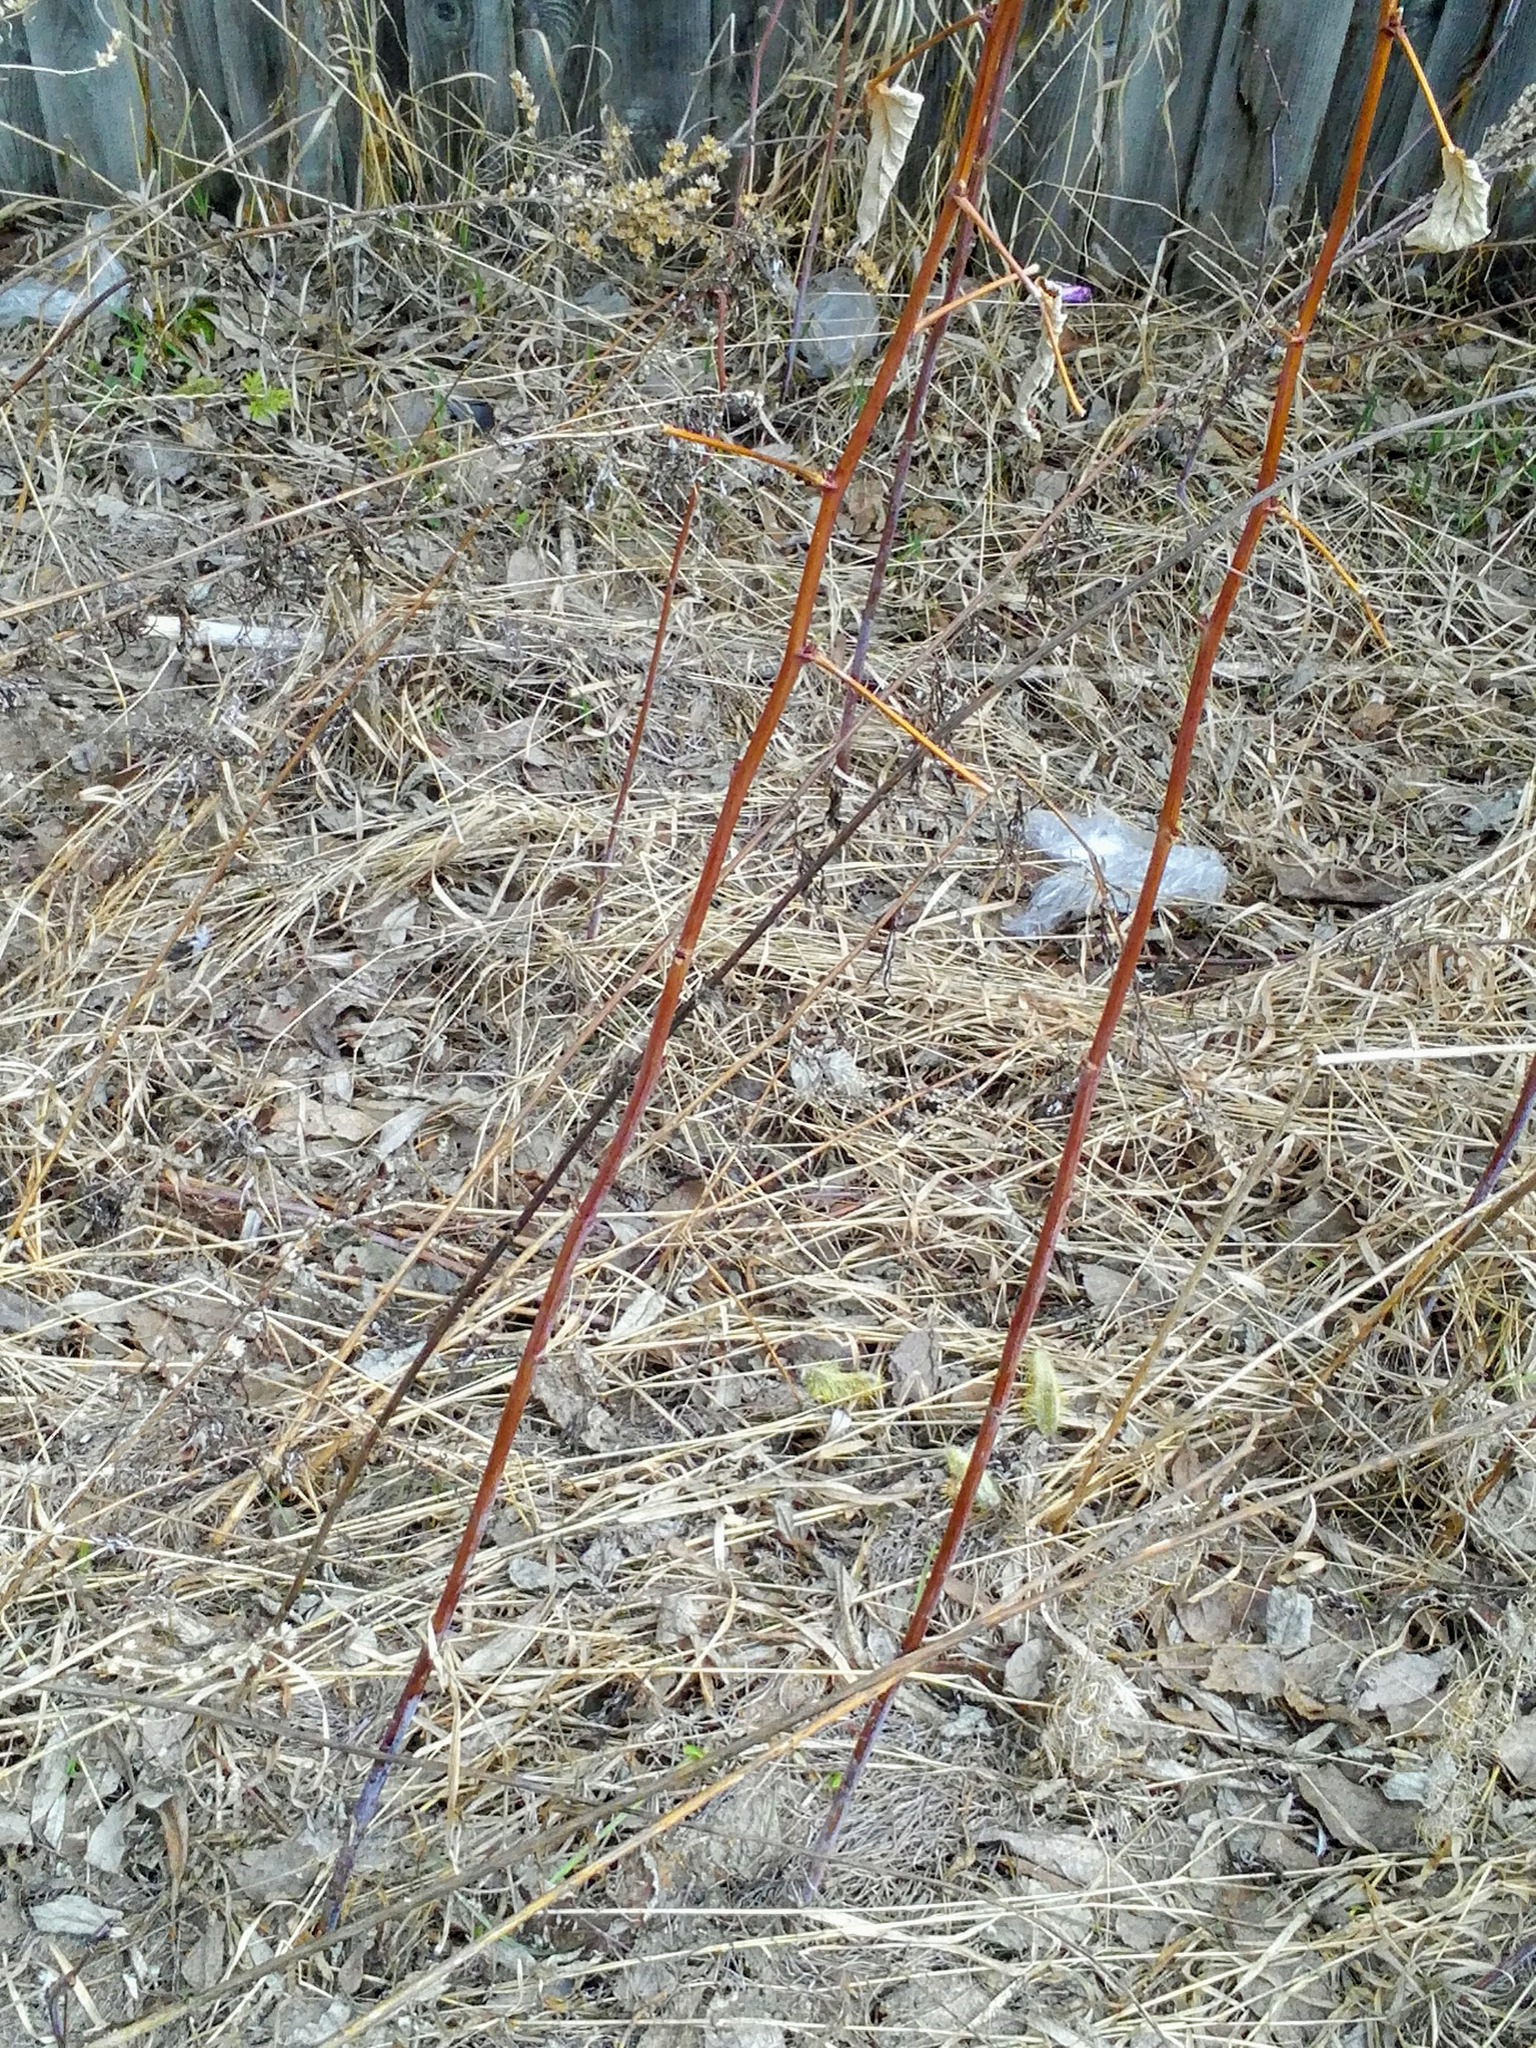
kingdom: Plantae
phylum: Tracheophyta
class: Magnoliopsida
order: Rosales
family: Rosaceae
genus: Rubus
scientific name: Rubus idaeus
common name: Raspberry
